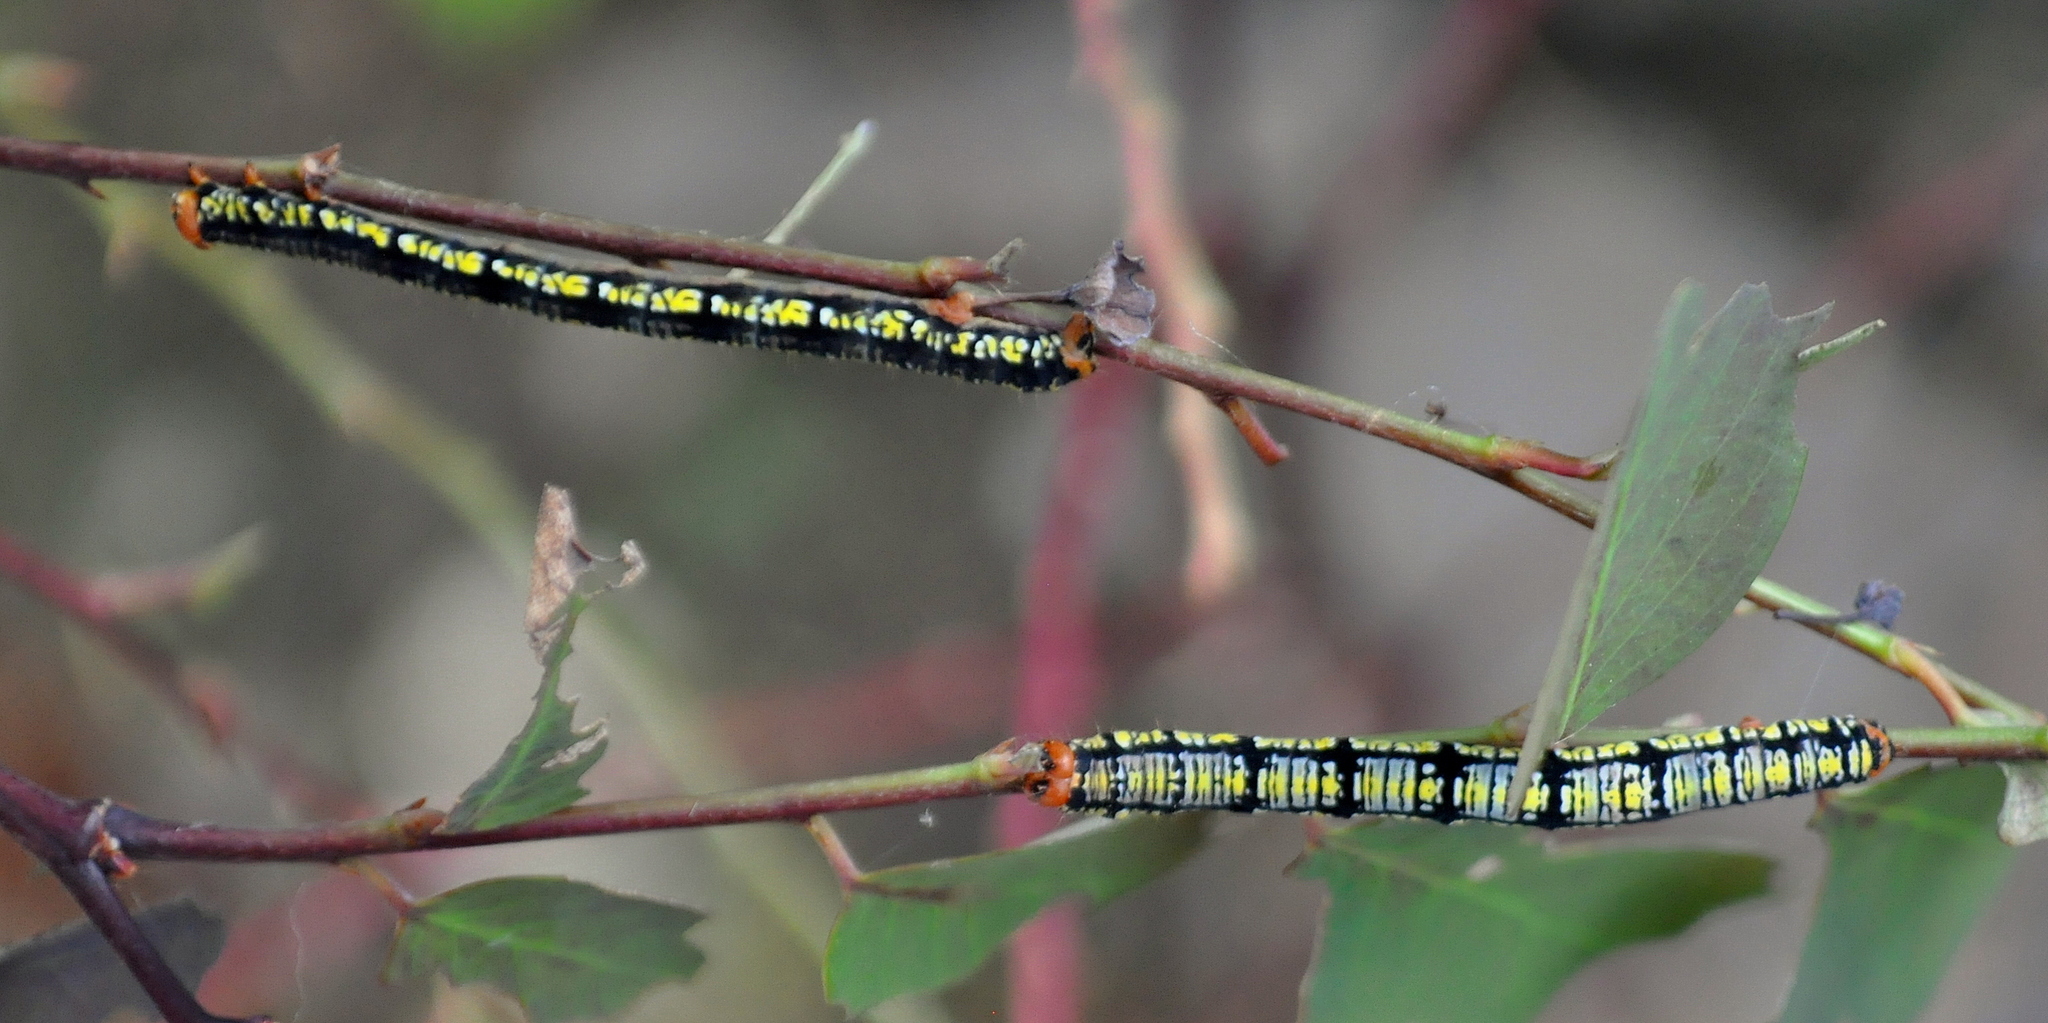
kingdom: Animalia
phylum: Arthropoda
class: Insecta
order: Lepidoptera
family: Geometridae
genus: Melanchroia
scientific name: Melanchroia aterea
